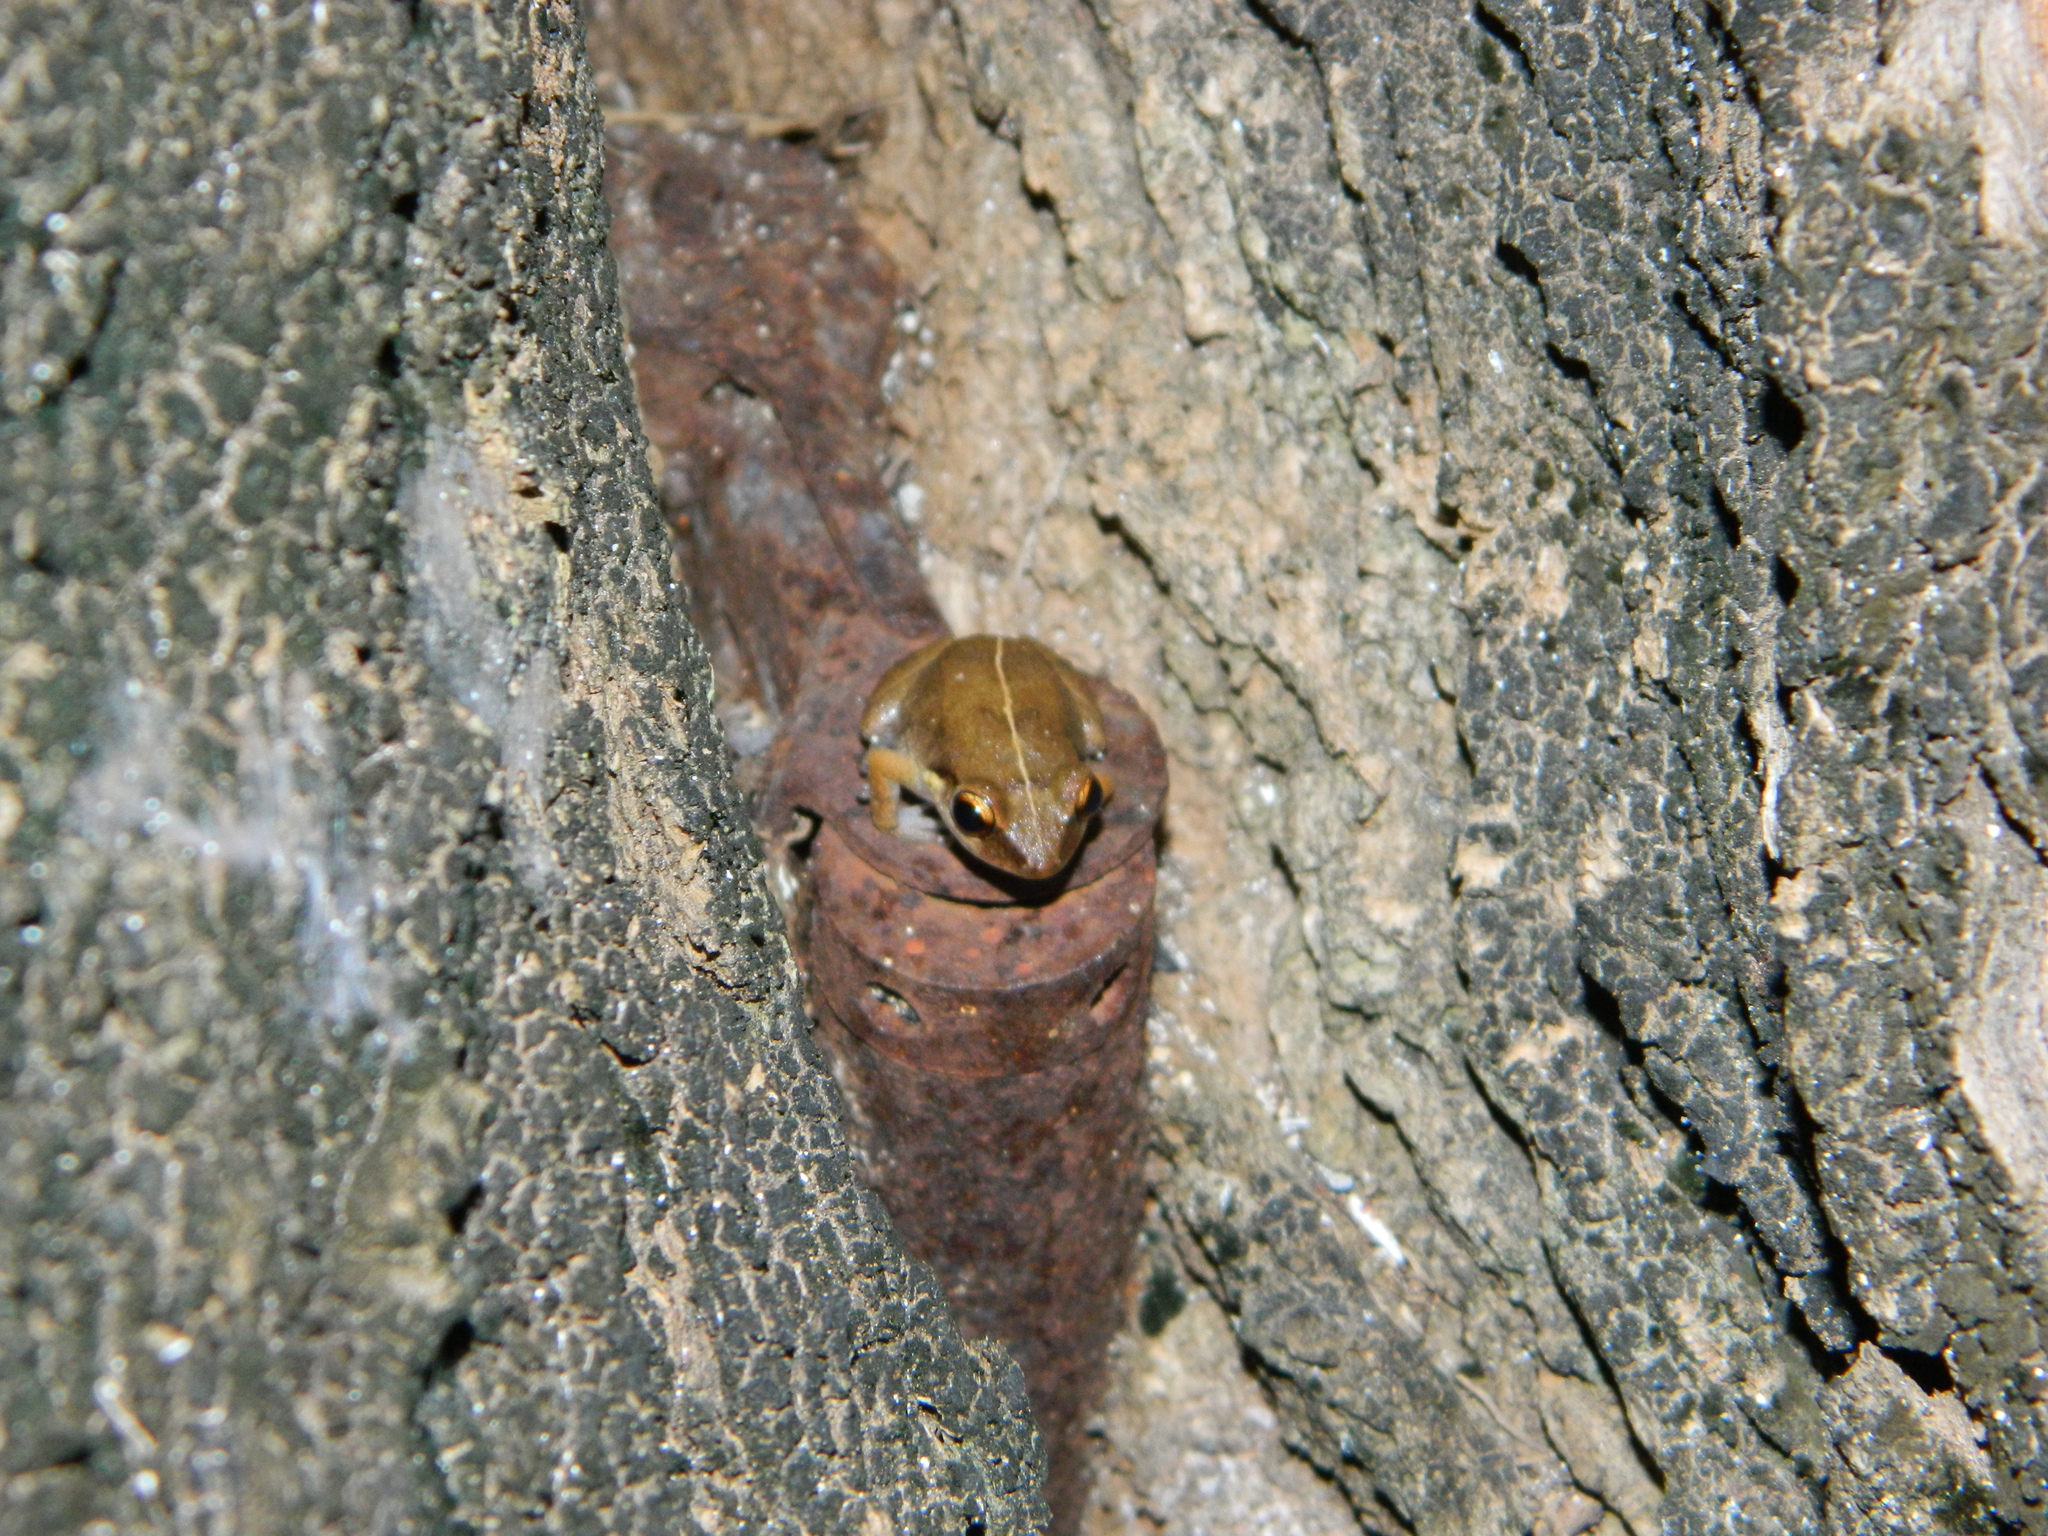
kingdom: Animalia
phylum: Chordata
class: Amphibia
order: Anura
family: Eleutherodactylidae
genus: Eleutherodactylus
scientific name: Eleutherodactylus johnstonei
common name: Johnstone's robber frog
